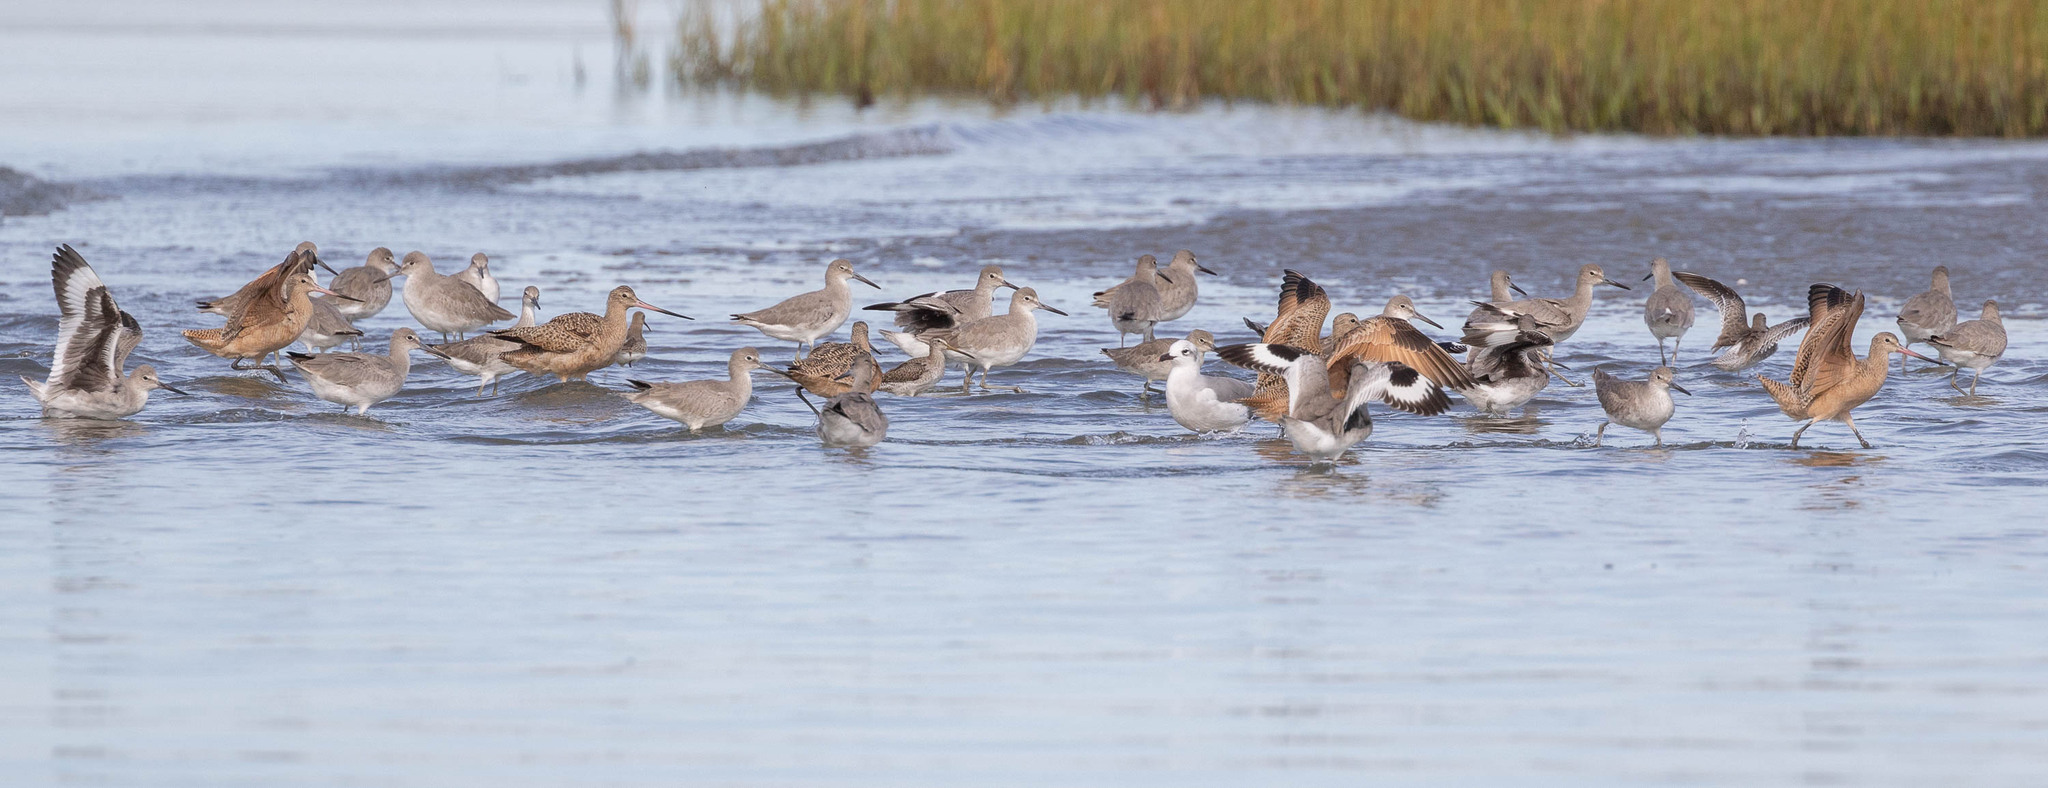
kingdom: Animalia
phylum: Chordata
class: Aves
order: Charadriiformes
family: Scolopacidae
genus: Tringa
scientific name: Tringa semipalmata
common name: Willet
